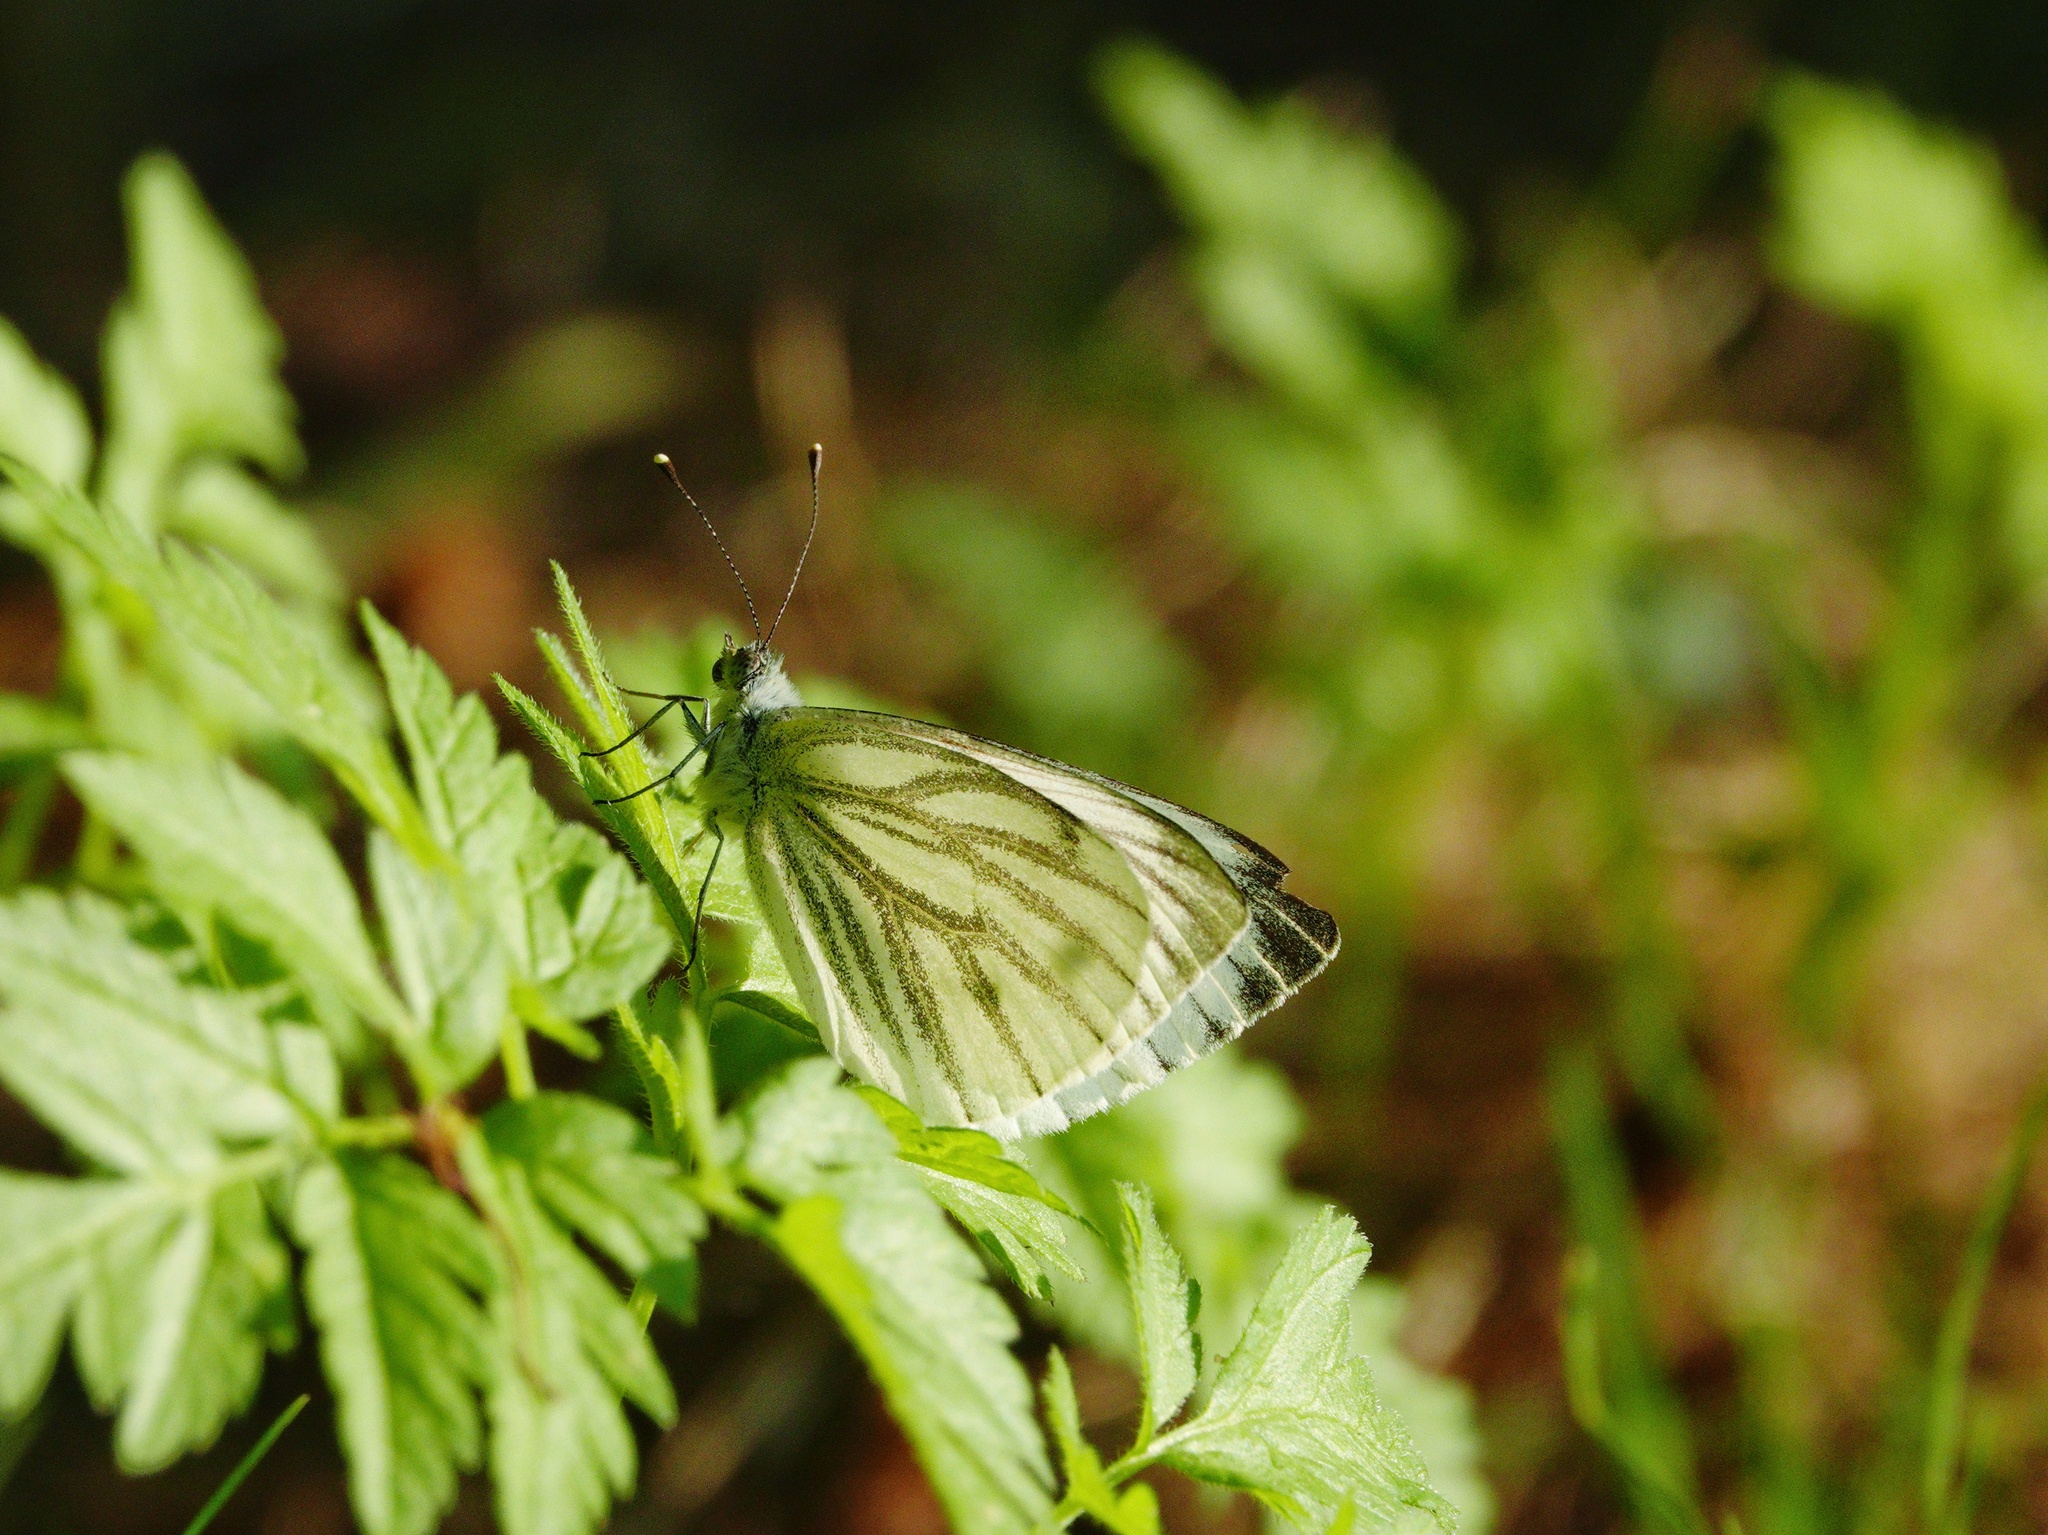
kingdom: Animalia
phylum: Arthropoda
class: Insecta
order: Lepidoptera
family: Pieridae
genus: Pieris
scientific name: Pieris napi
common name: Green-veined white
